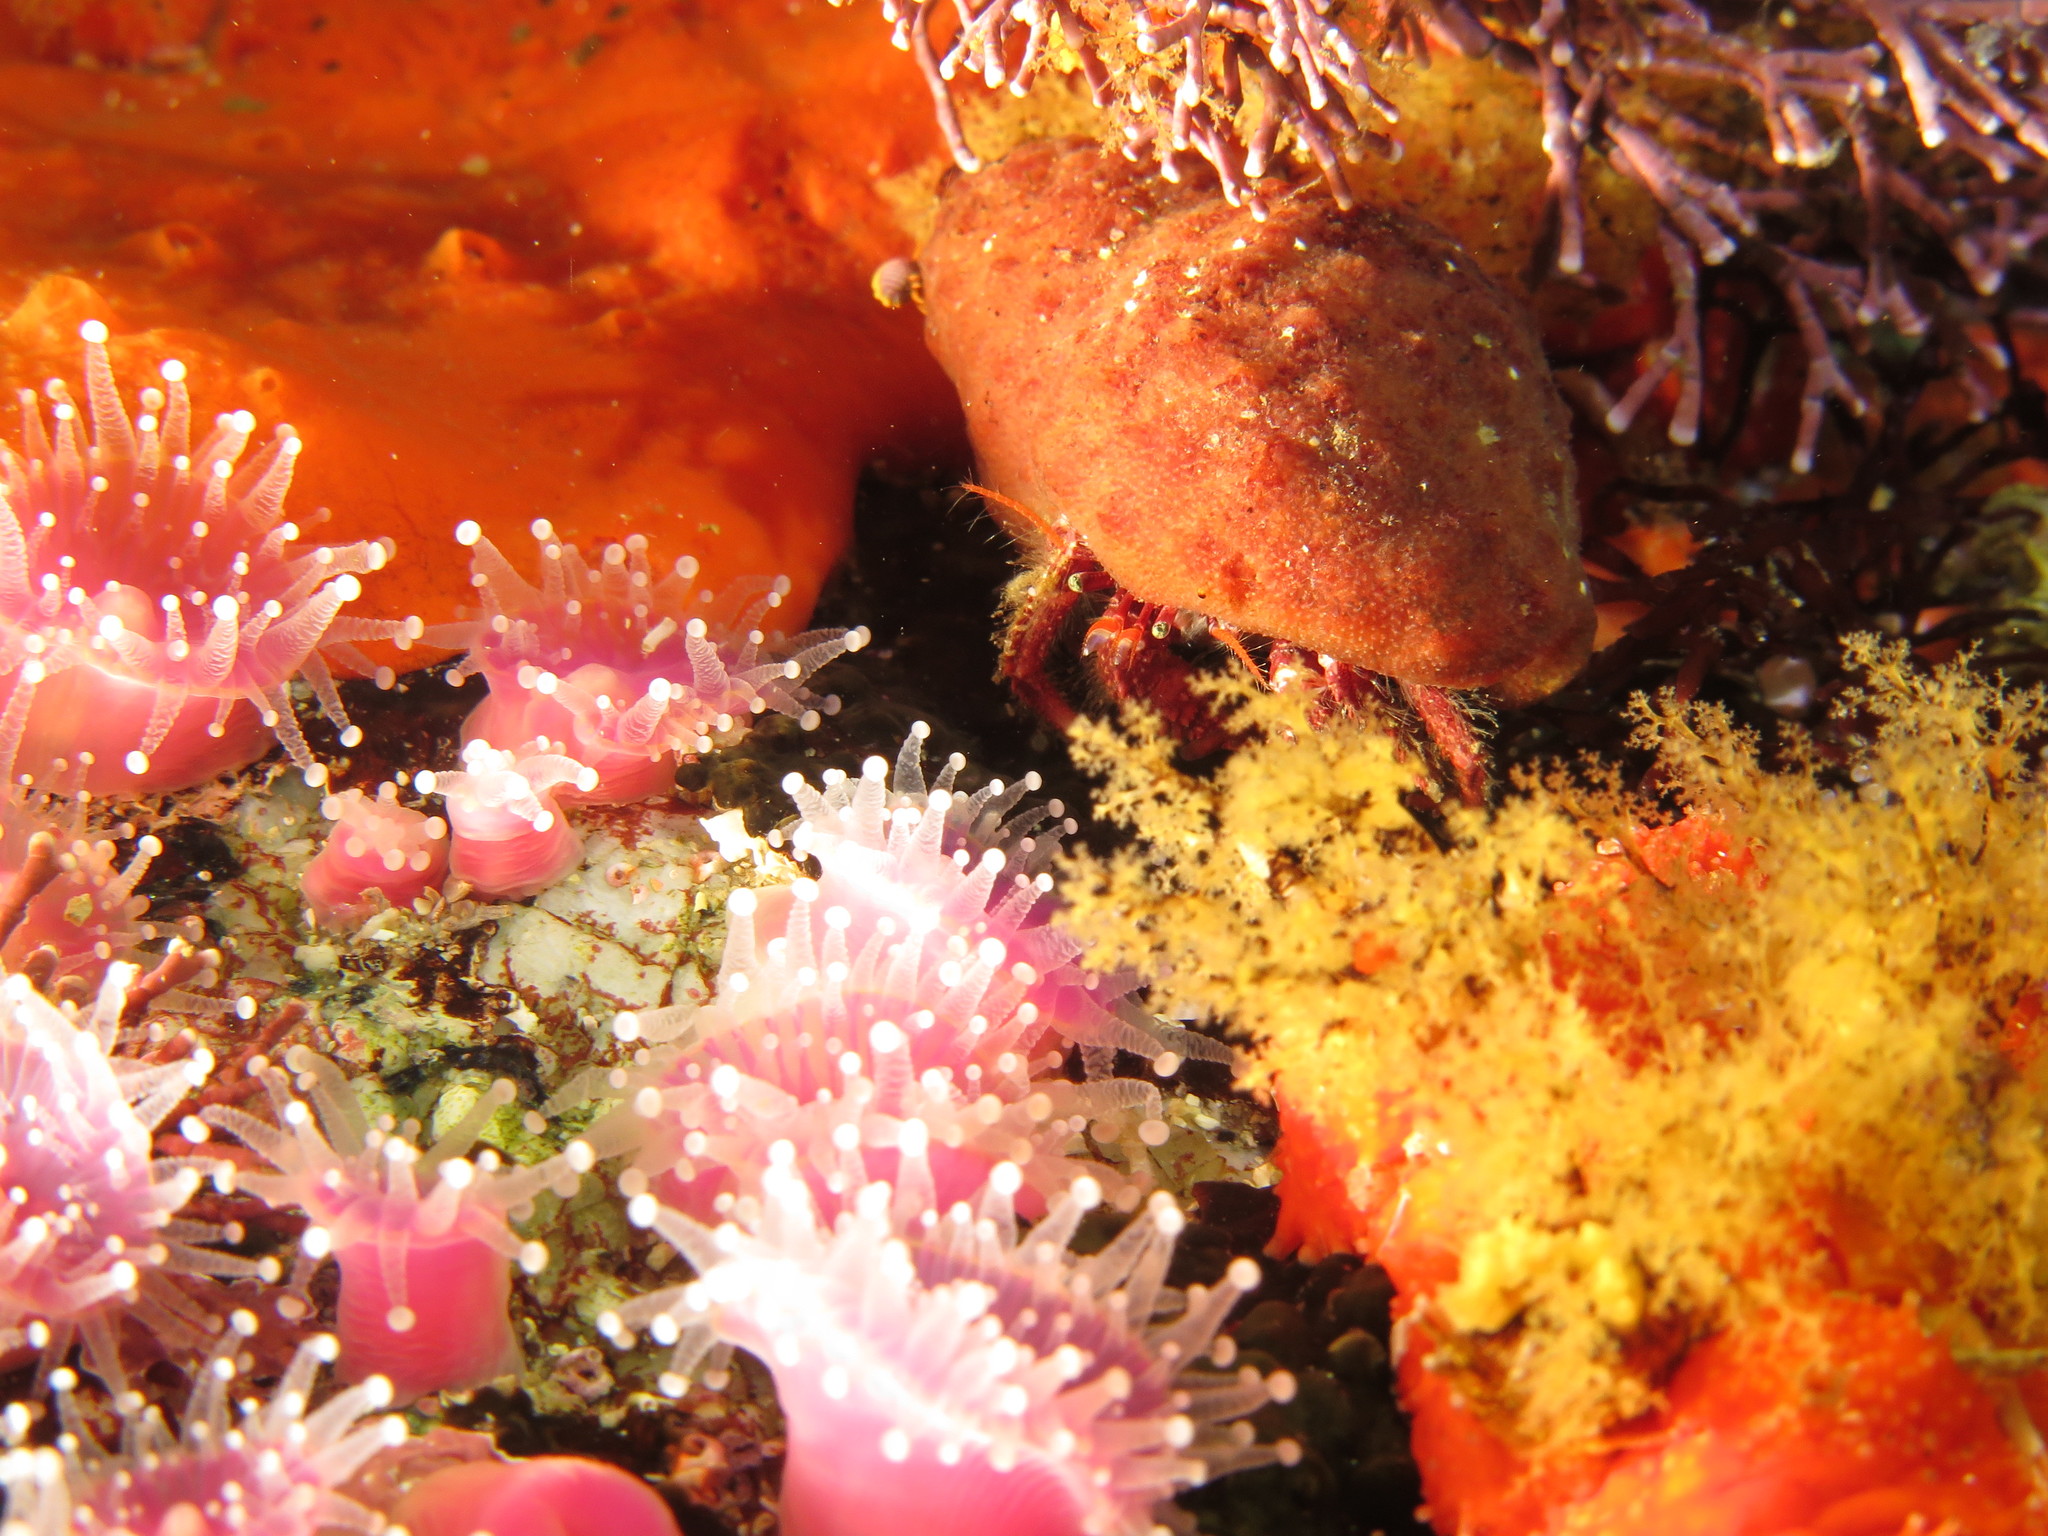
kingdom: Animalia
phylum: Arthropoda
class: Malacostraca
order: Decapoda
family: Diogenidae
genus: Paguristes
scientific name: Paguristes gamianus
